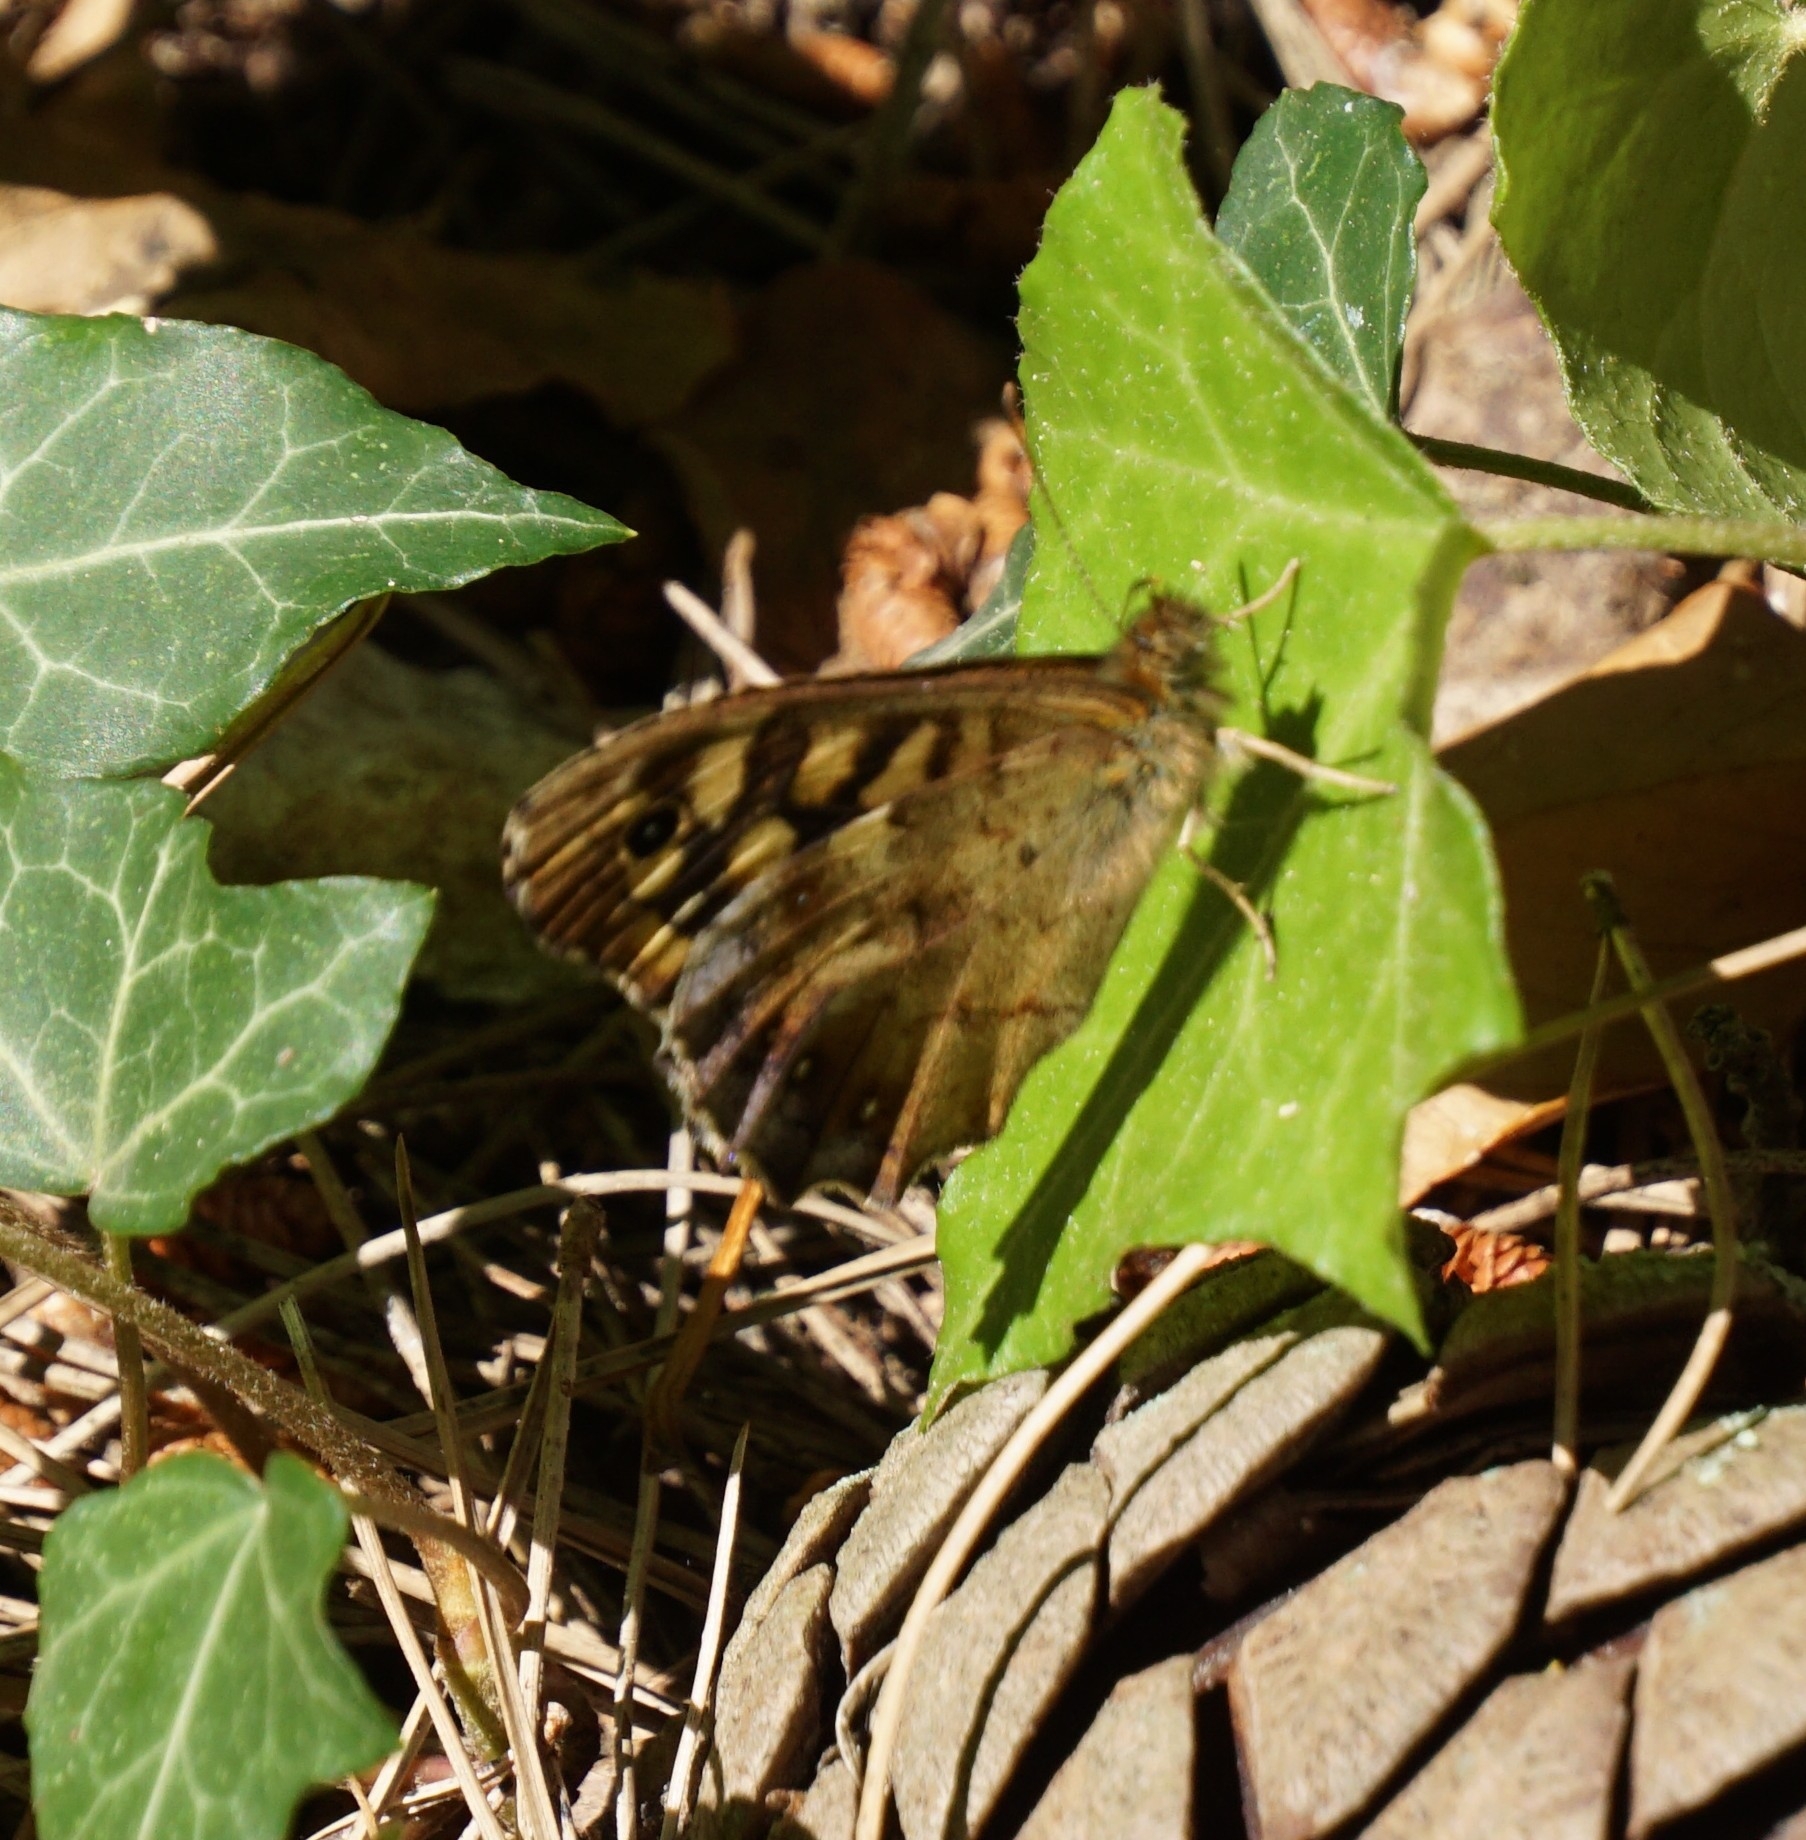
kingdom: Animalia
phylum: Arthropoda
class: Insecta
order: Lepidoptera
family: Nymphalidae
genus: Pararge
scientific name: Pararge aegeria
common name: Speckled wood
